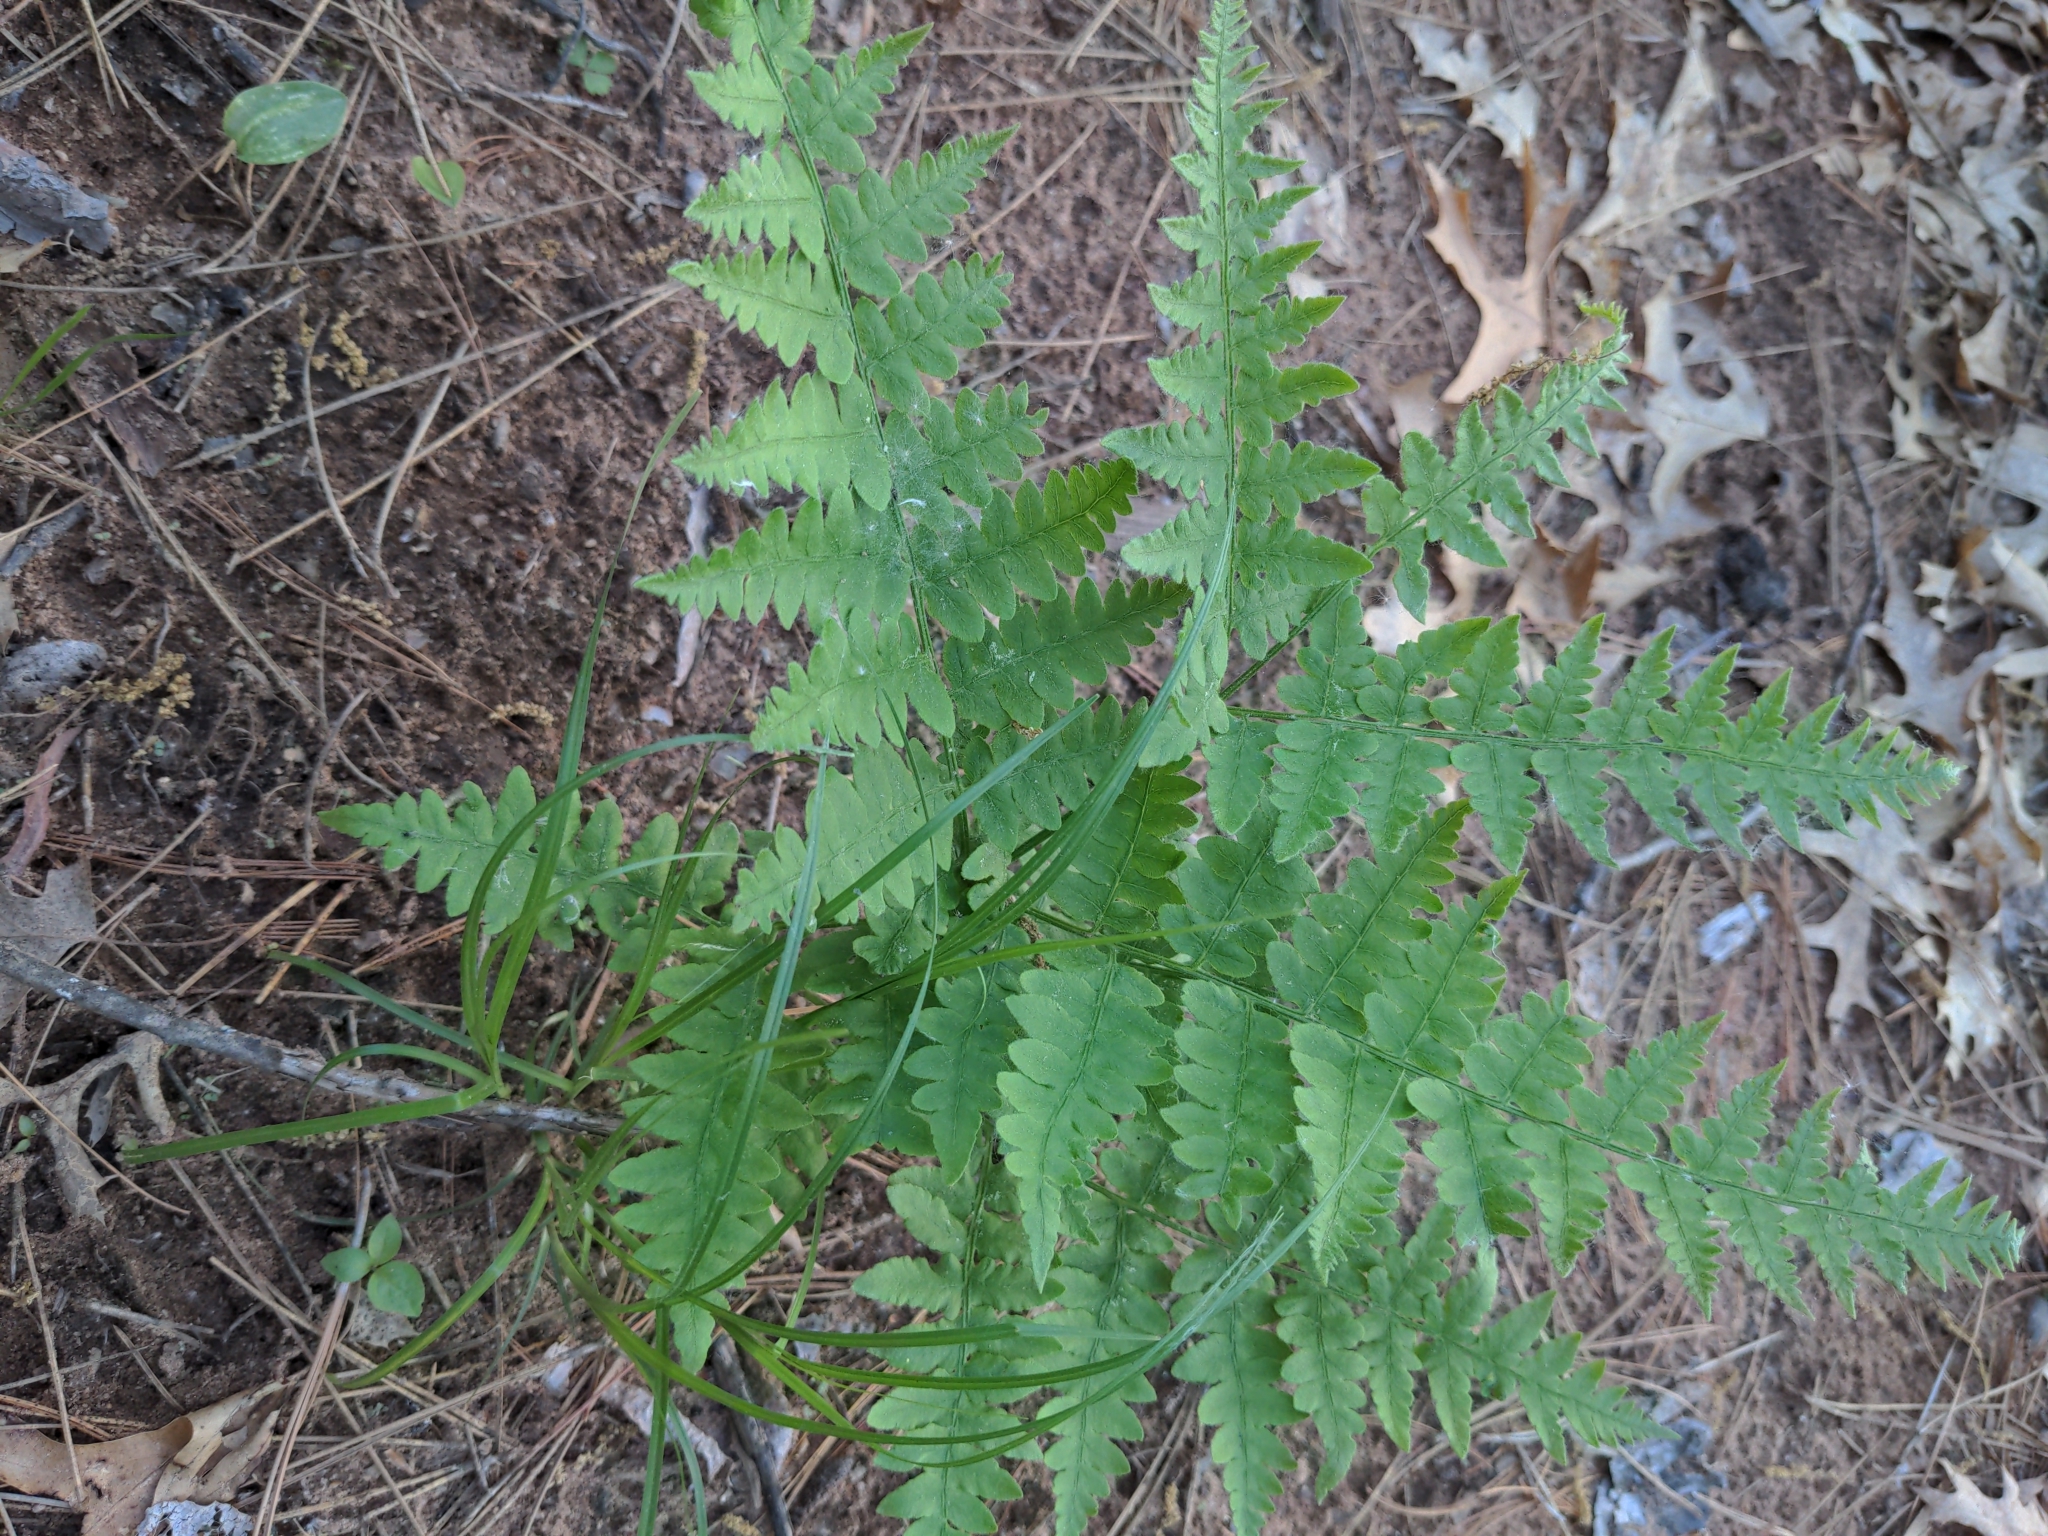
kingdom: Plantae
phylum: Tracheophyta
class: Polypodiopsida
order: Polypodiales
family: Dennstaedtiaceae
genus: Pteridium
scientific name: Pteridium aquilinum
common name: Bracken
